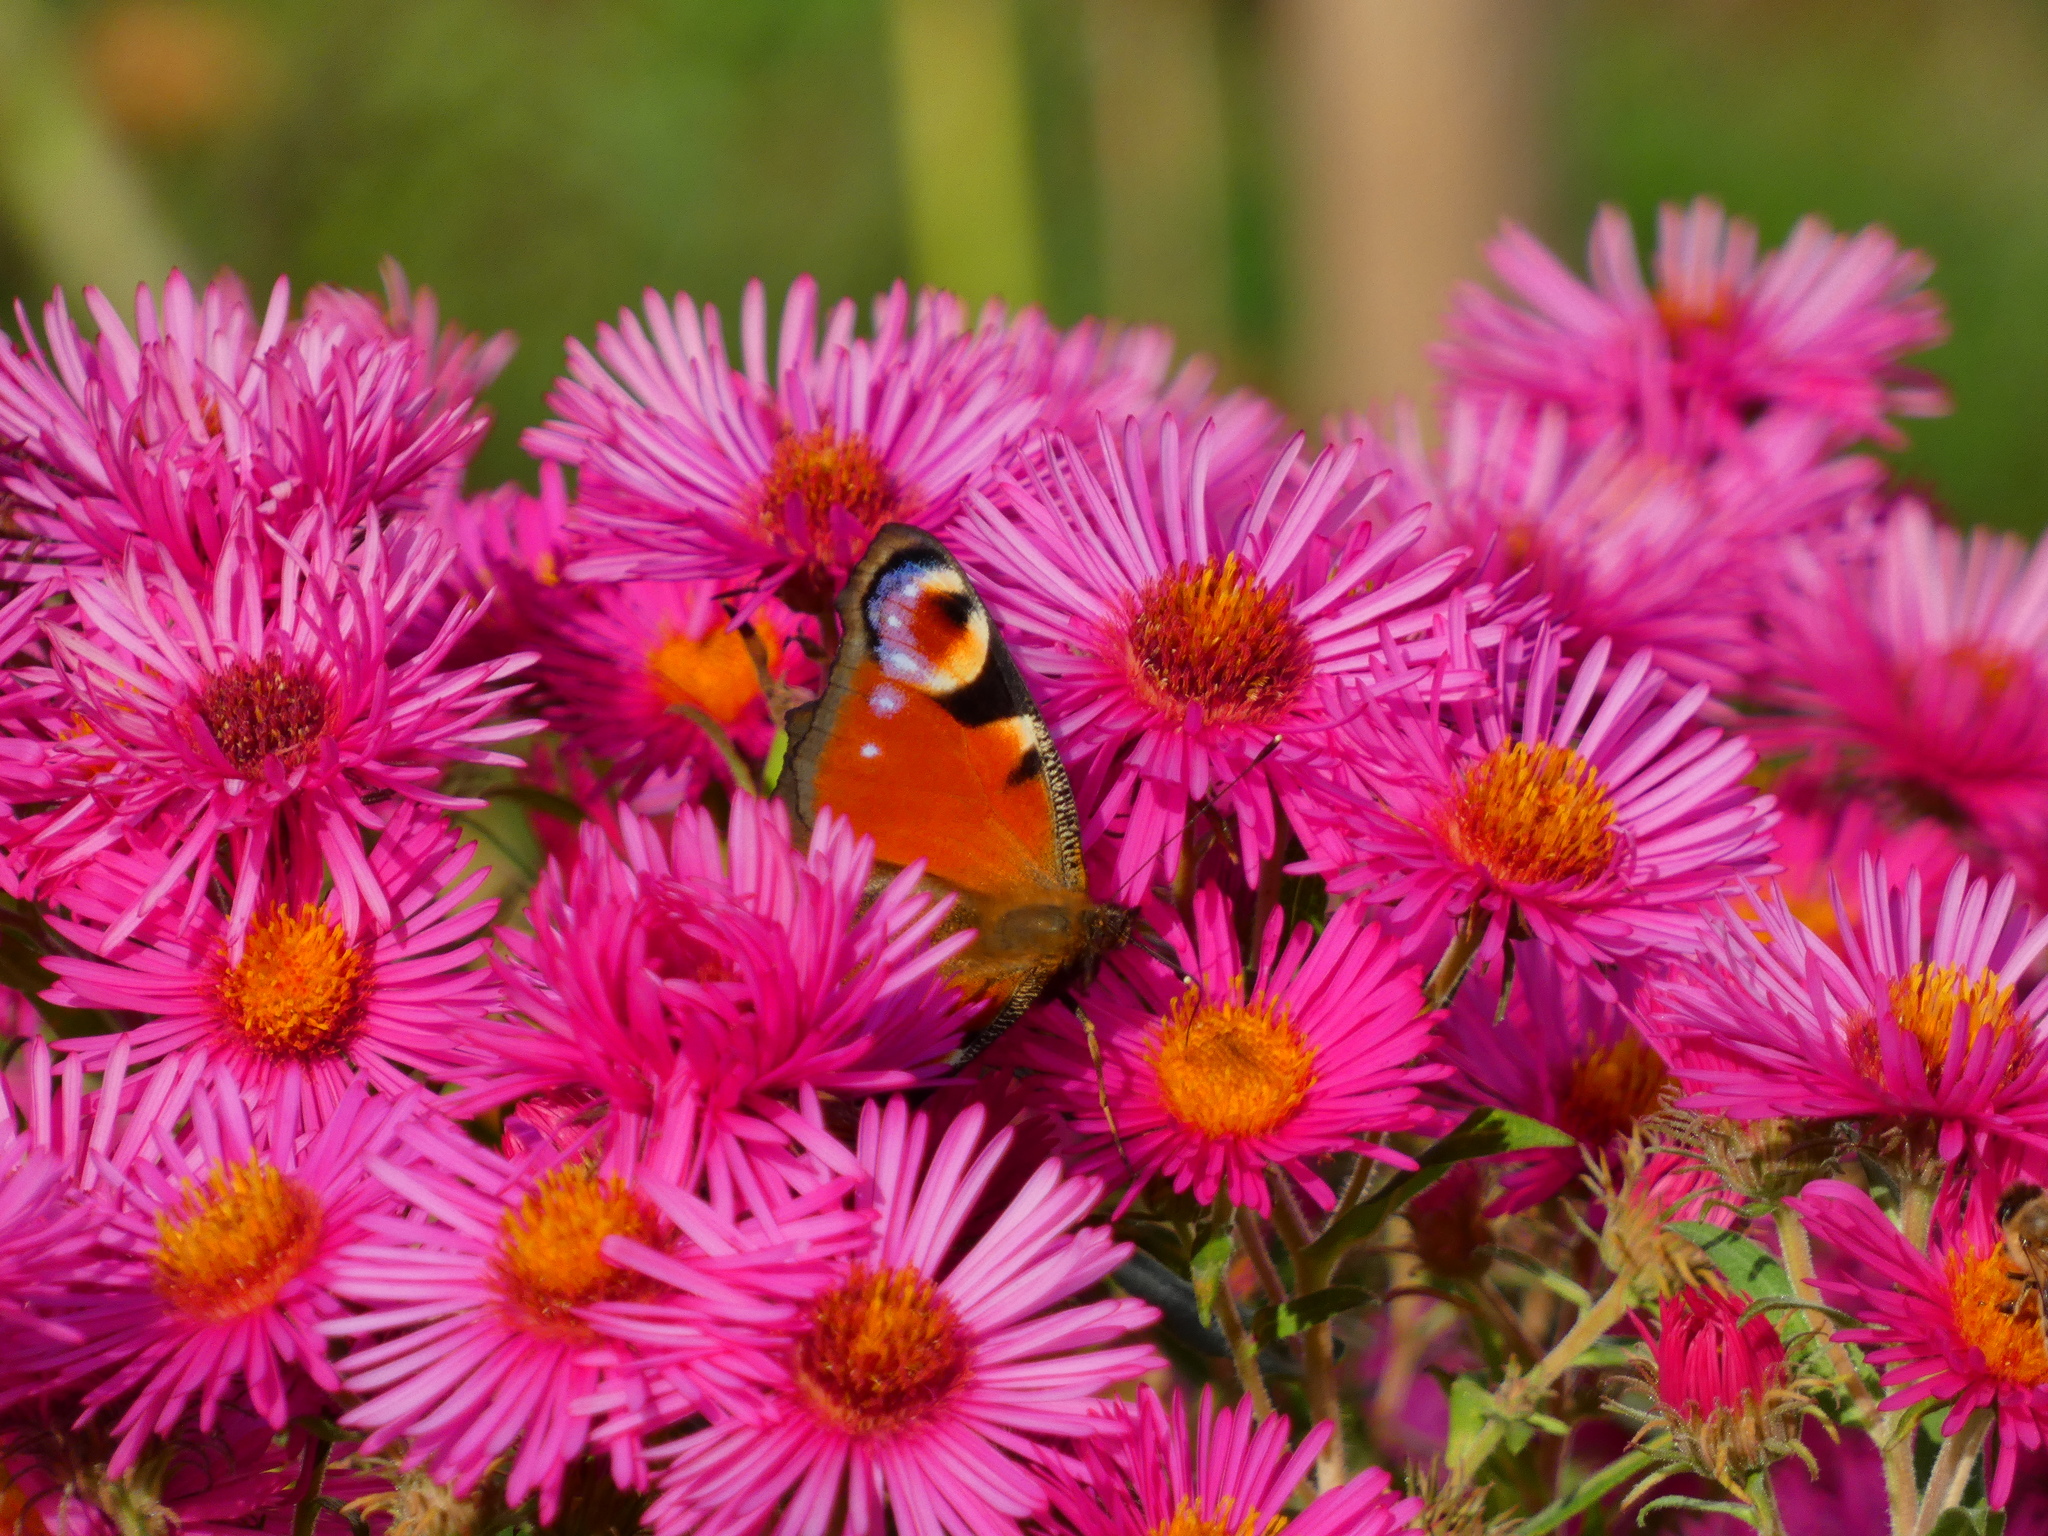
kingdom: Animalia
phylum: Arthropoda
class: Insecta
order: Lepidoptera
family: Nymphalidae
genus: Aglais
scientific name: Aglais io
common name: Peacock
